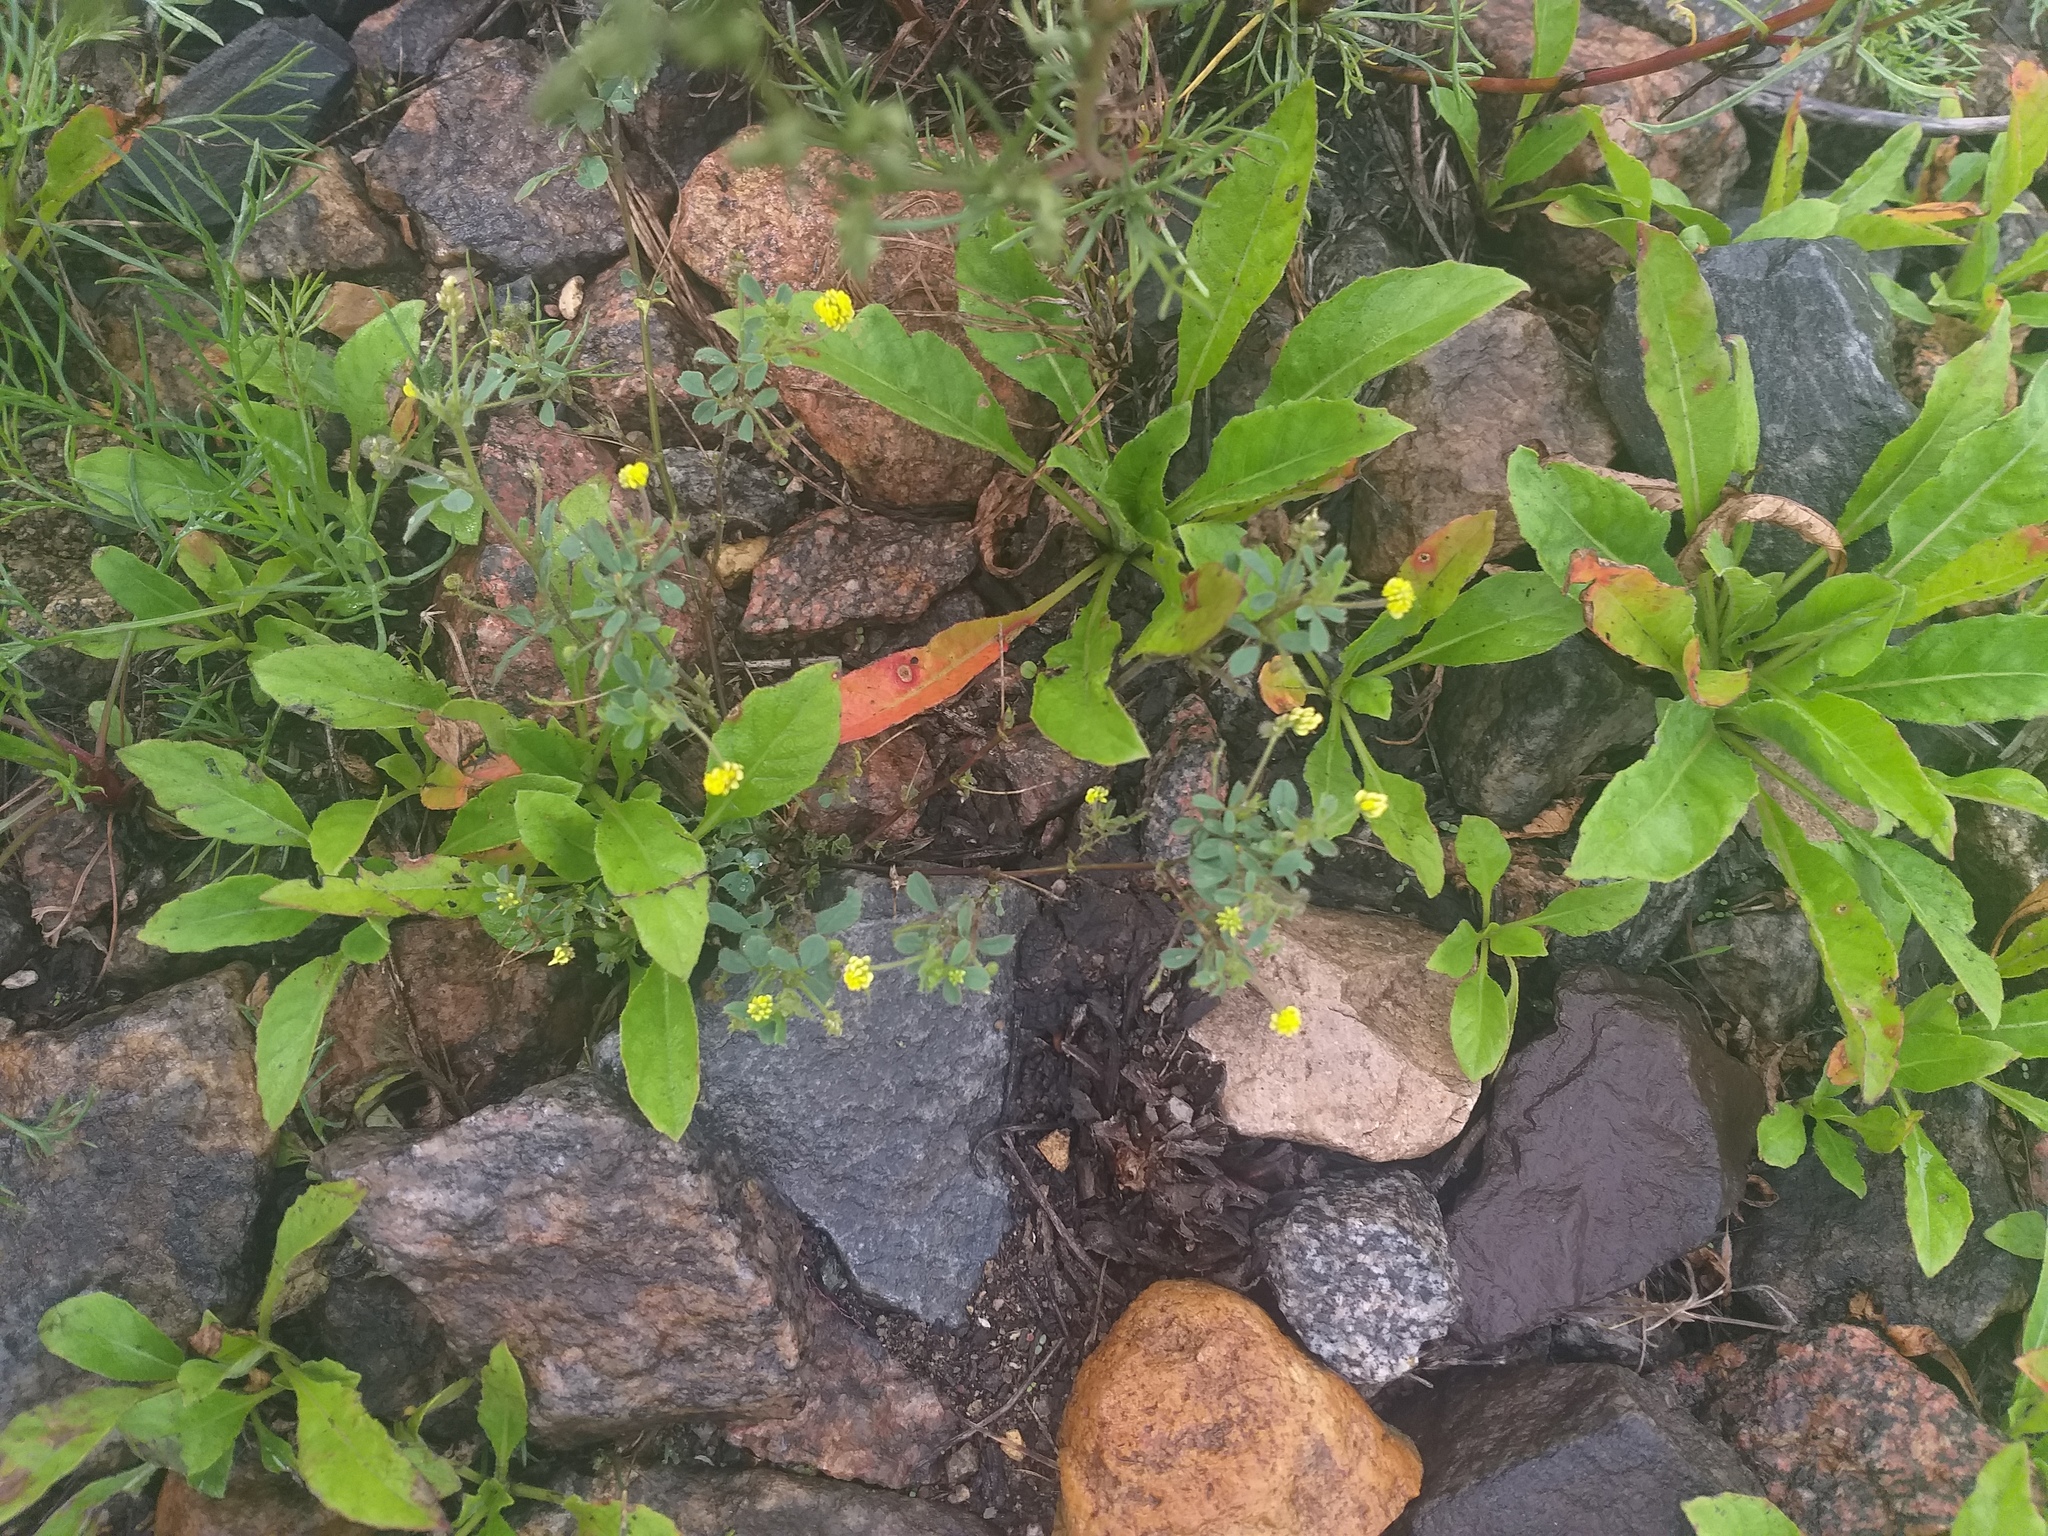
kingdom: Plantae
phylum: Tracheophyta
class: Magnoliopsida
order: Fabales
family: Fabaceae
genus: Medicago
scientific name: Medicago lupulina
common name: Black medick
